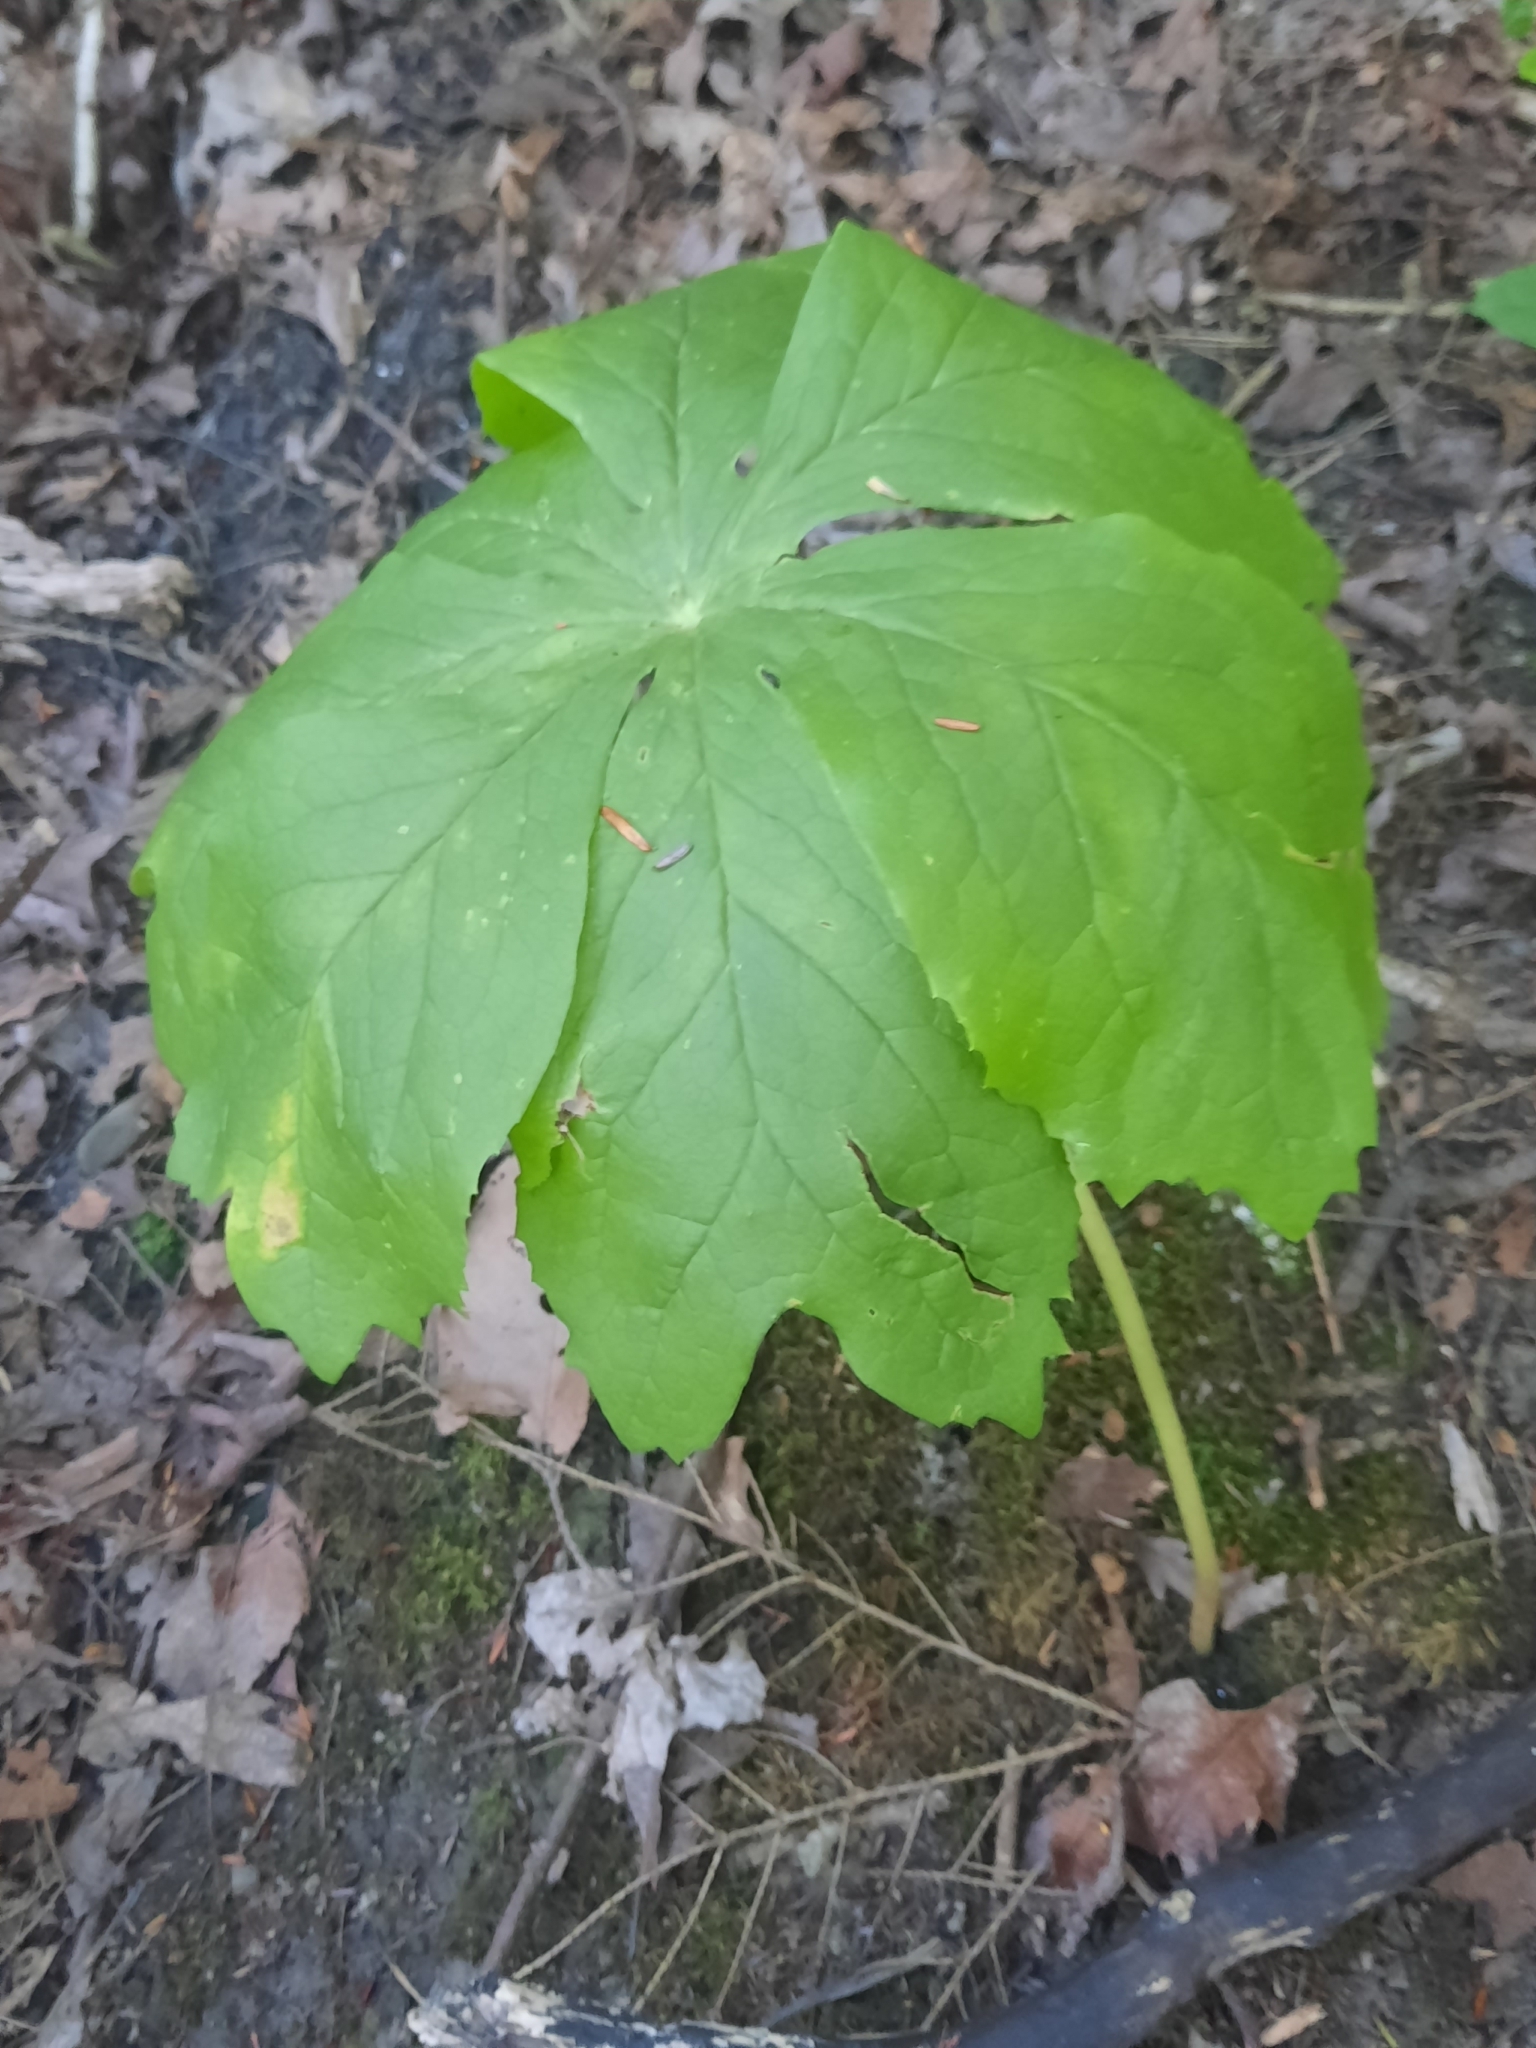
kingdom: Plantae
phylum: Tracheophyta
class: Magnoliopsida
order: Ranunculales
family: Berberidaceae
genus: Podophyllum
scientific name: Podophyllum peltatum
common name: Wild mandrake
